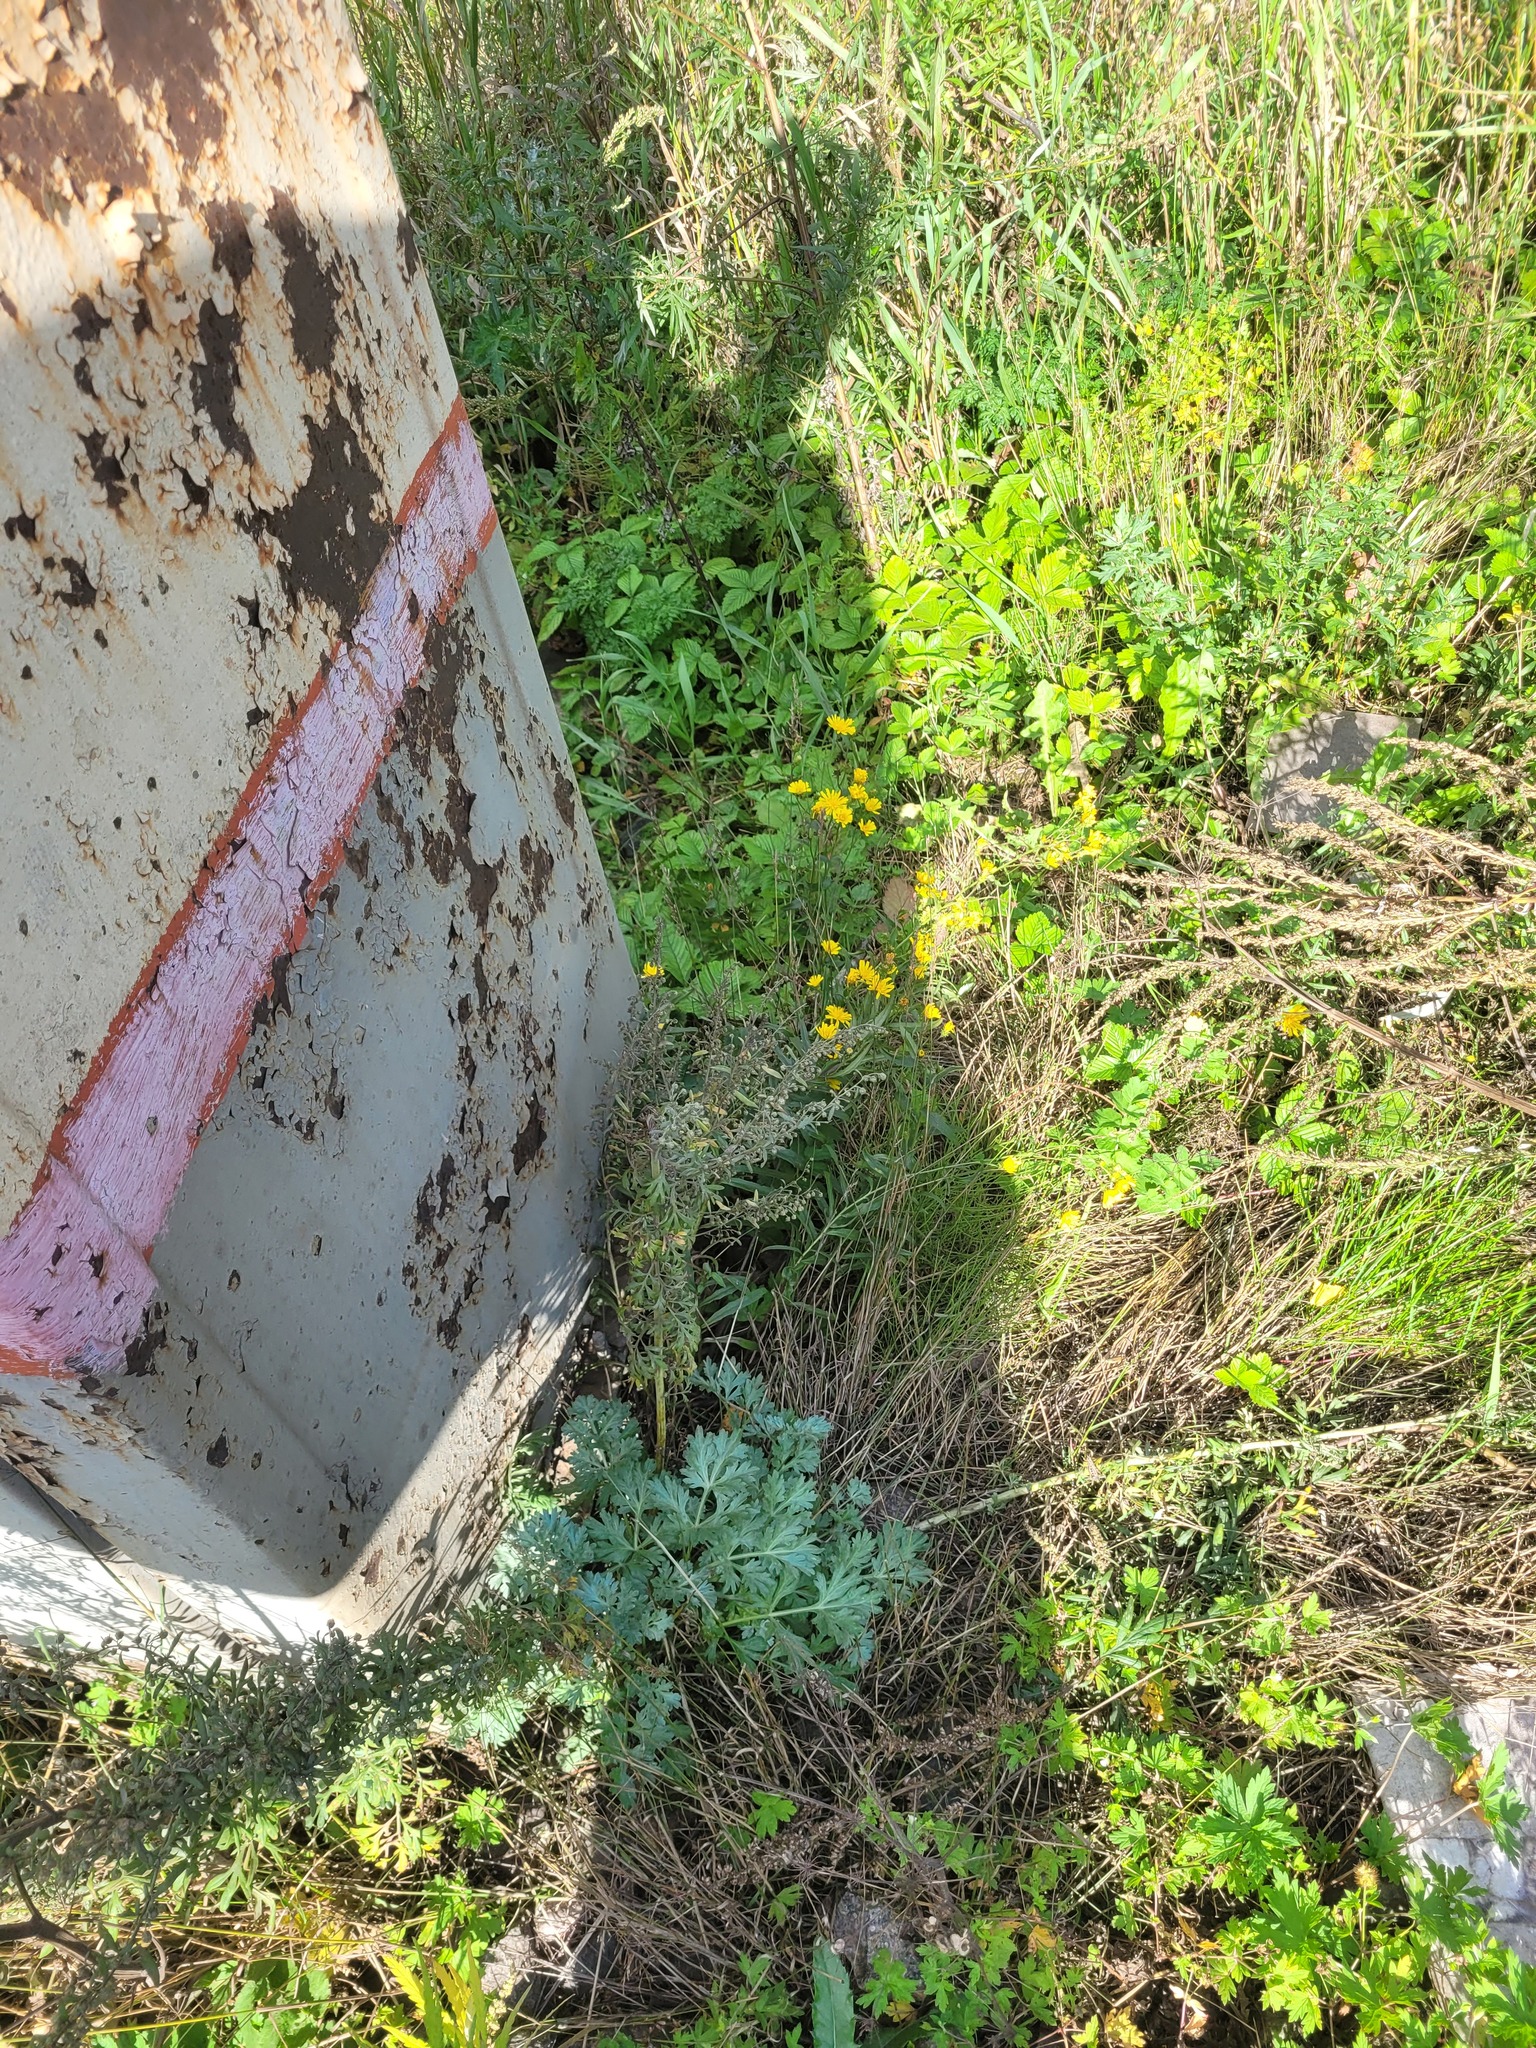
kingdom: Plantae
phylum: Tracheophyta
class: Magnoliopsida
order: Asterales
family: Asteraceae
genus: Artemisia
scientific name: Artemisia absinthium
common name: Wormwood
